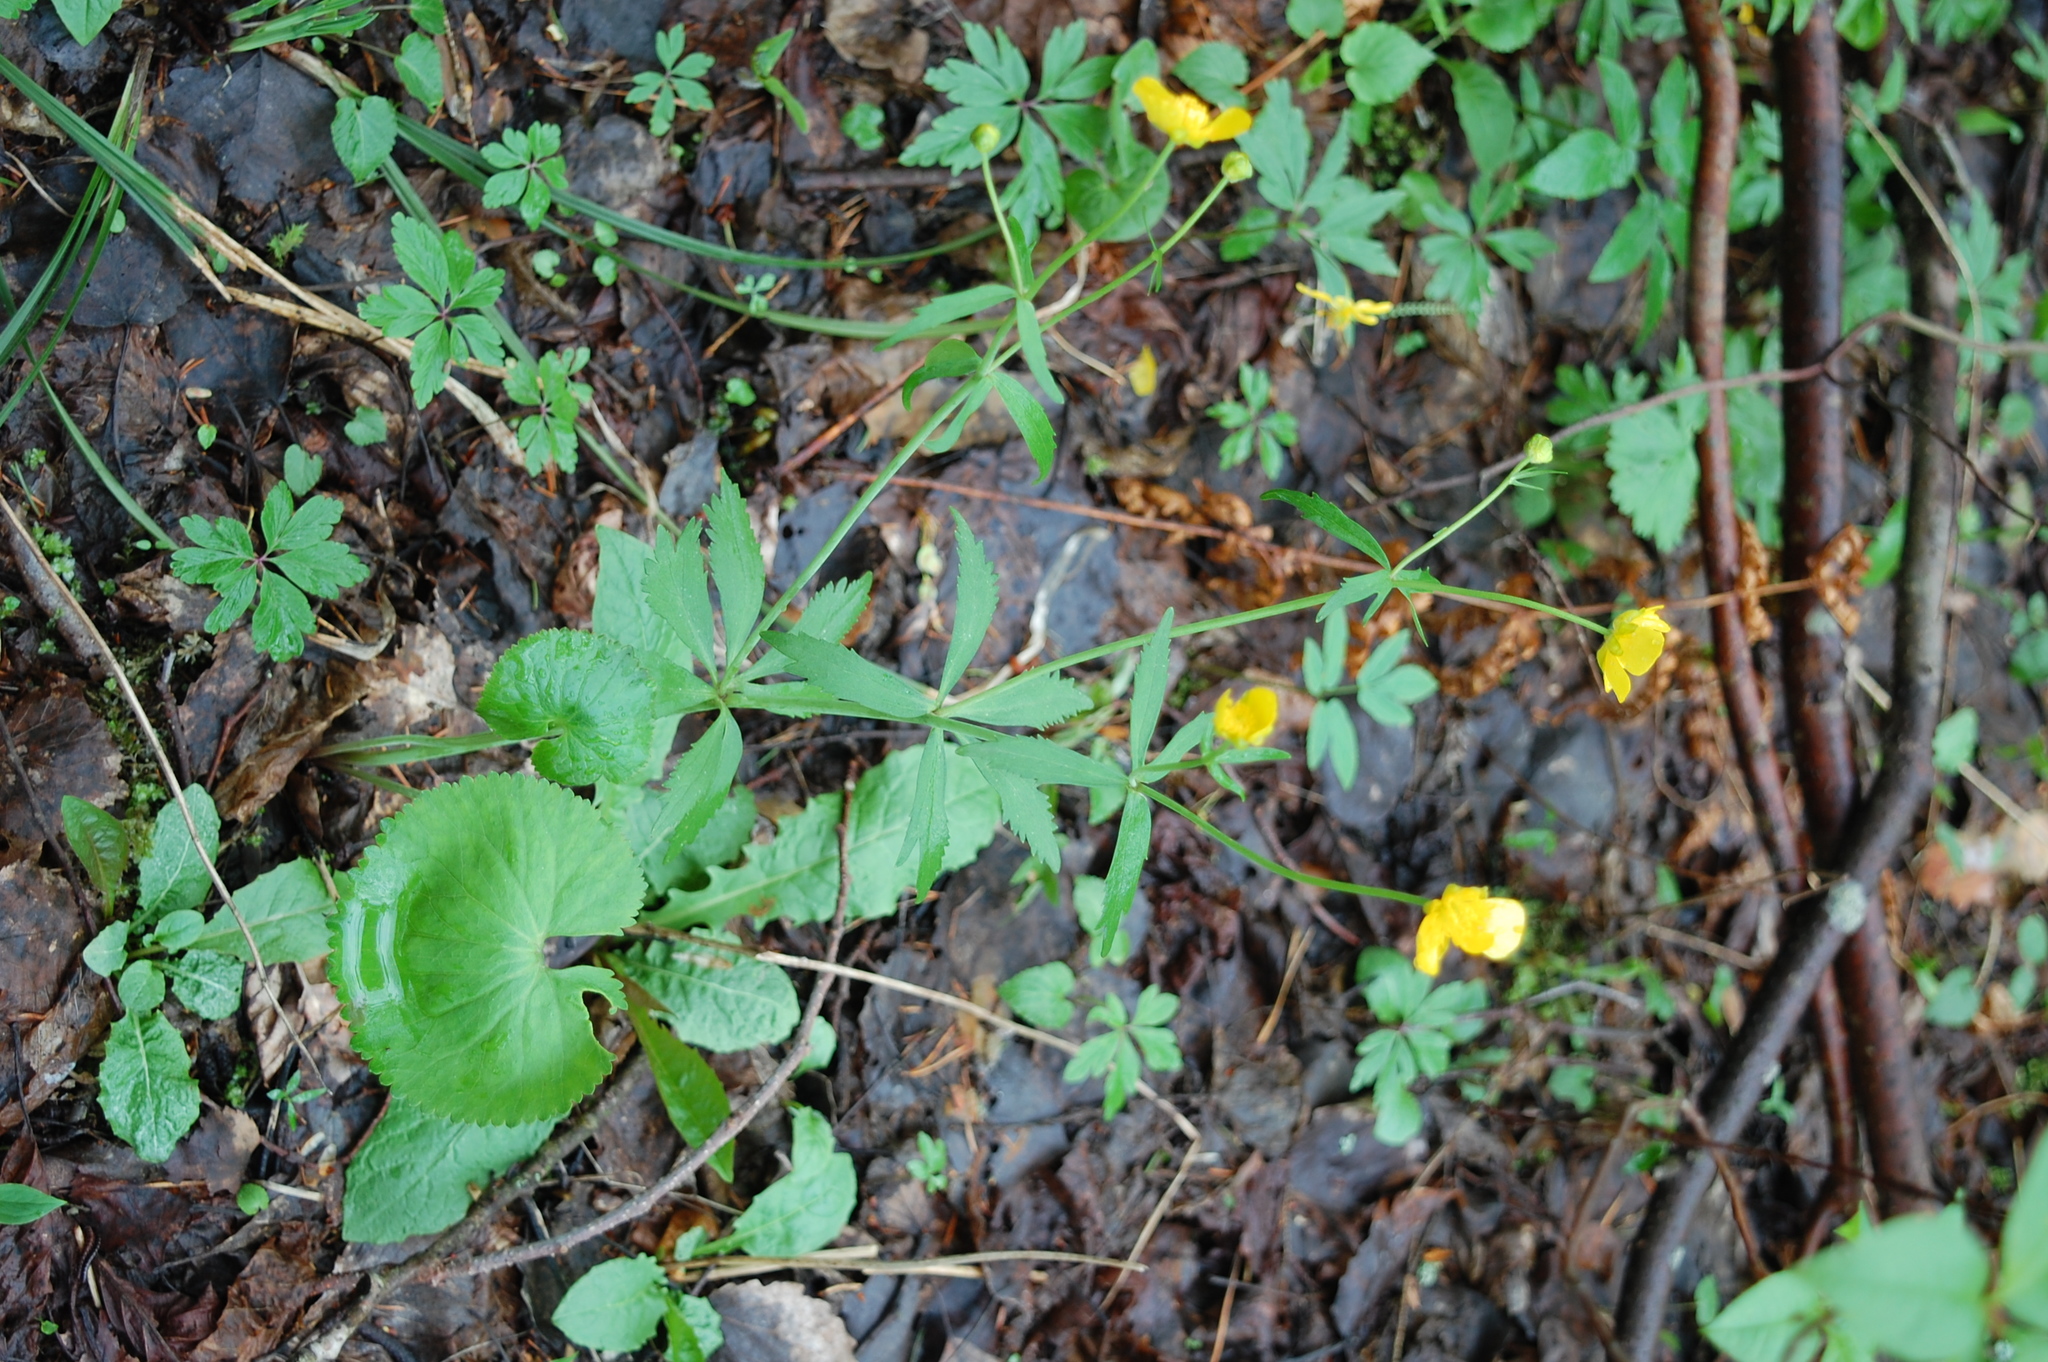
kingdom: Plantae
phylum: Tracheophyta
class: Magnoliopsida
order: Ranunculales
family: Ranunculaceae
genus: Ranunculus
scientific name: Ranunculus cassubicus
